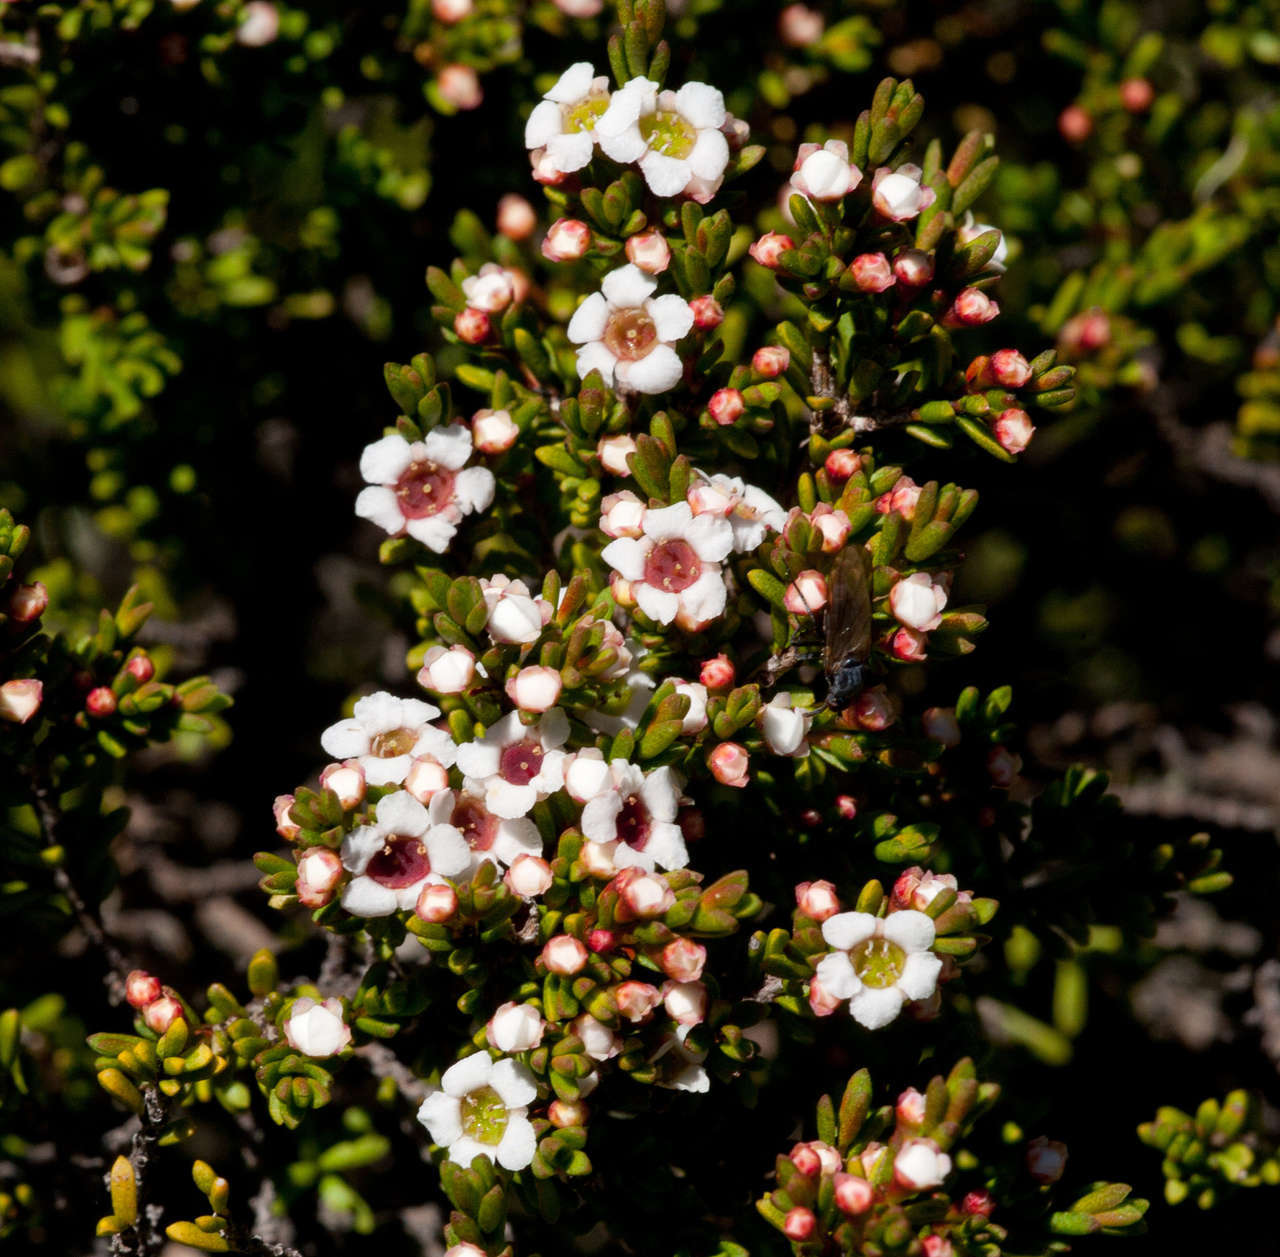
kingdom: Plantae
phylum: Tracheophyta
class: Magnoliopsida
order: Myrtales
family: Myrtaceae
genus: Baeckea
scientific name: Baeckea gunniana
